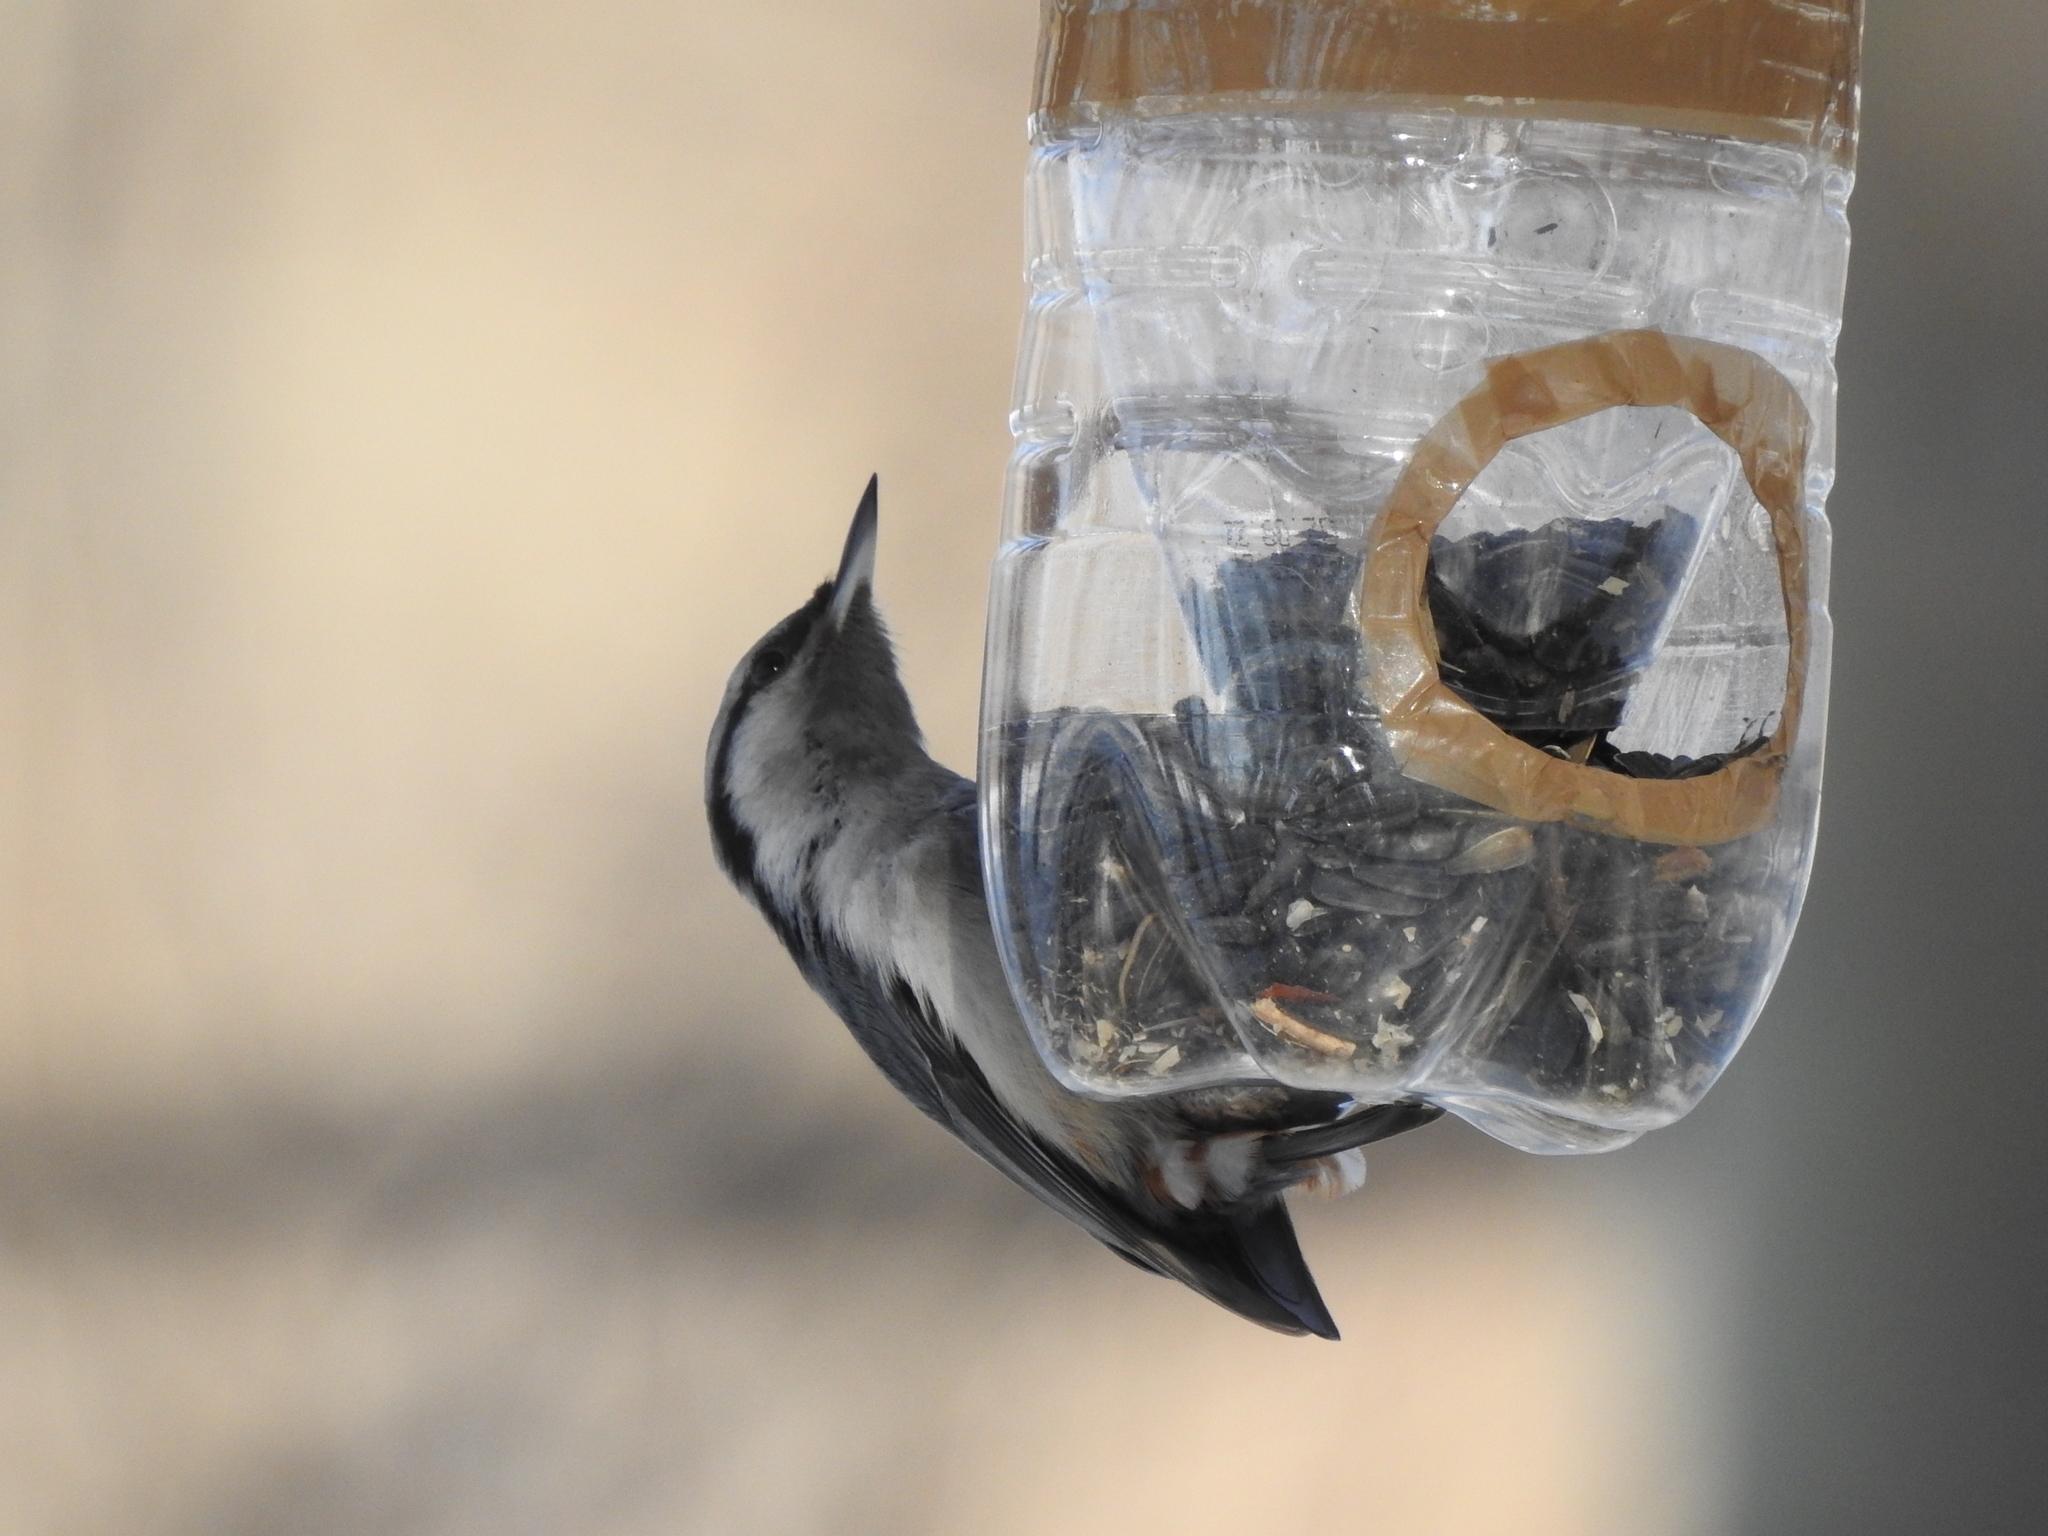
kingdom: Animalia
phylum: Chordata
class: Aves
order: Passeriformes
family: Sittidae
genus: Sitta
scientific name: Sitta europaea
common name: Eurasian nuthatch
